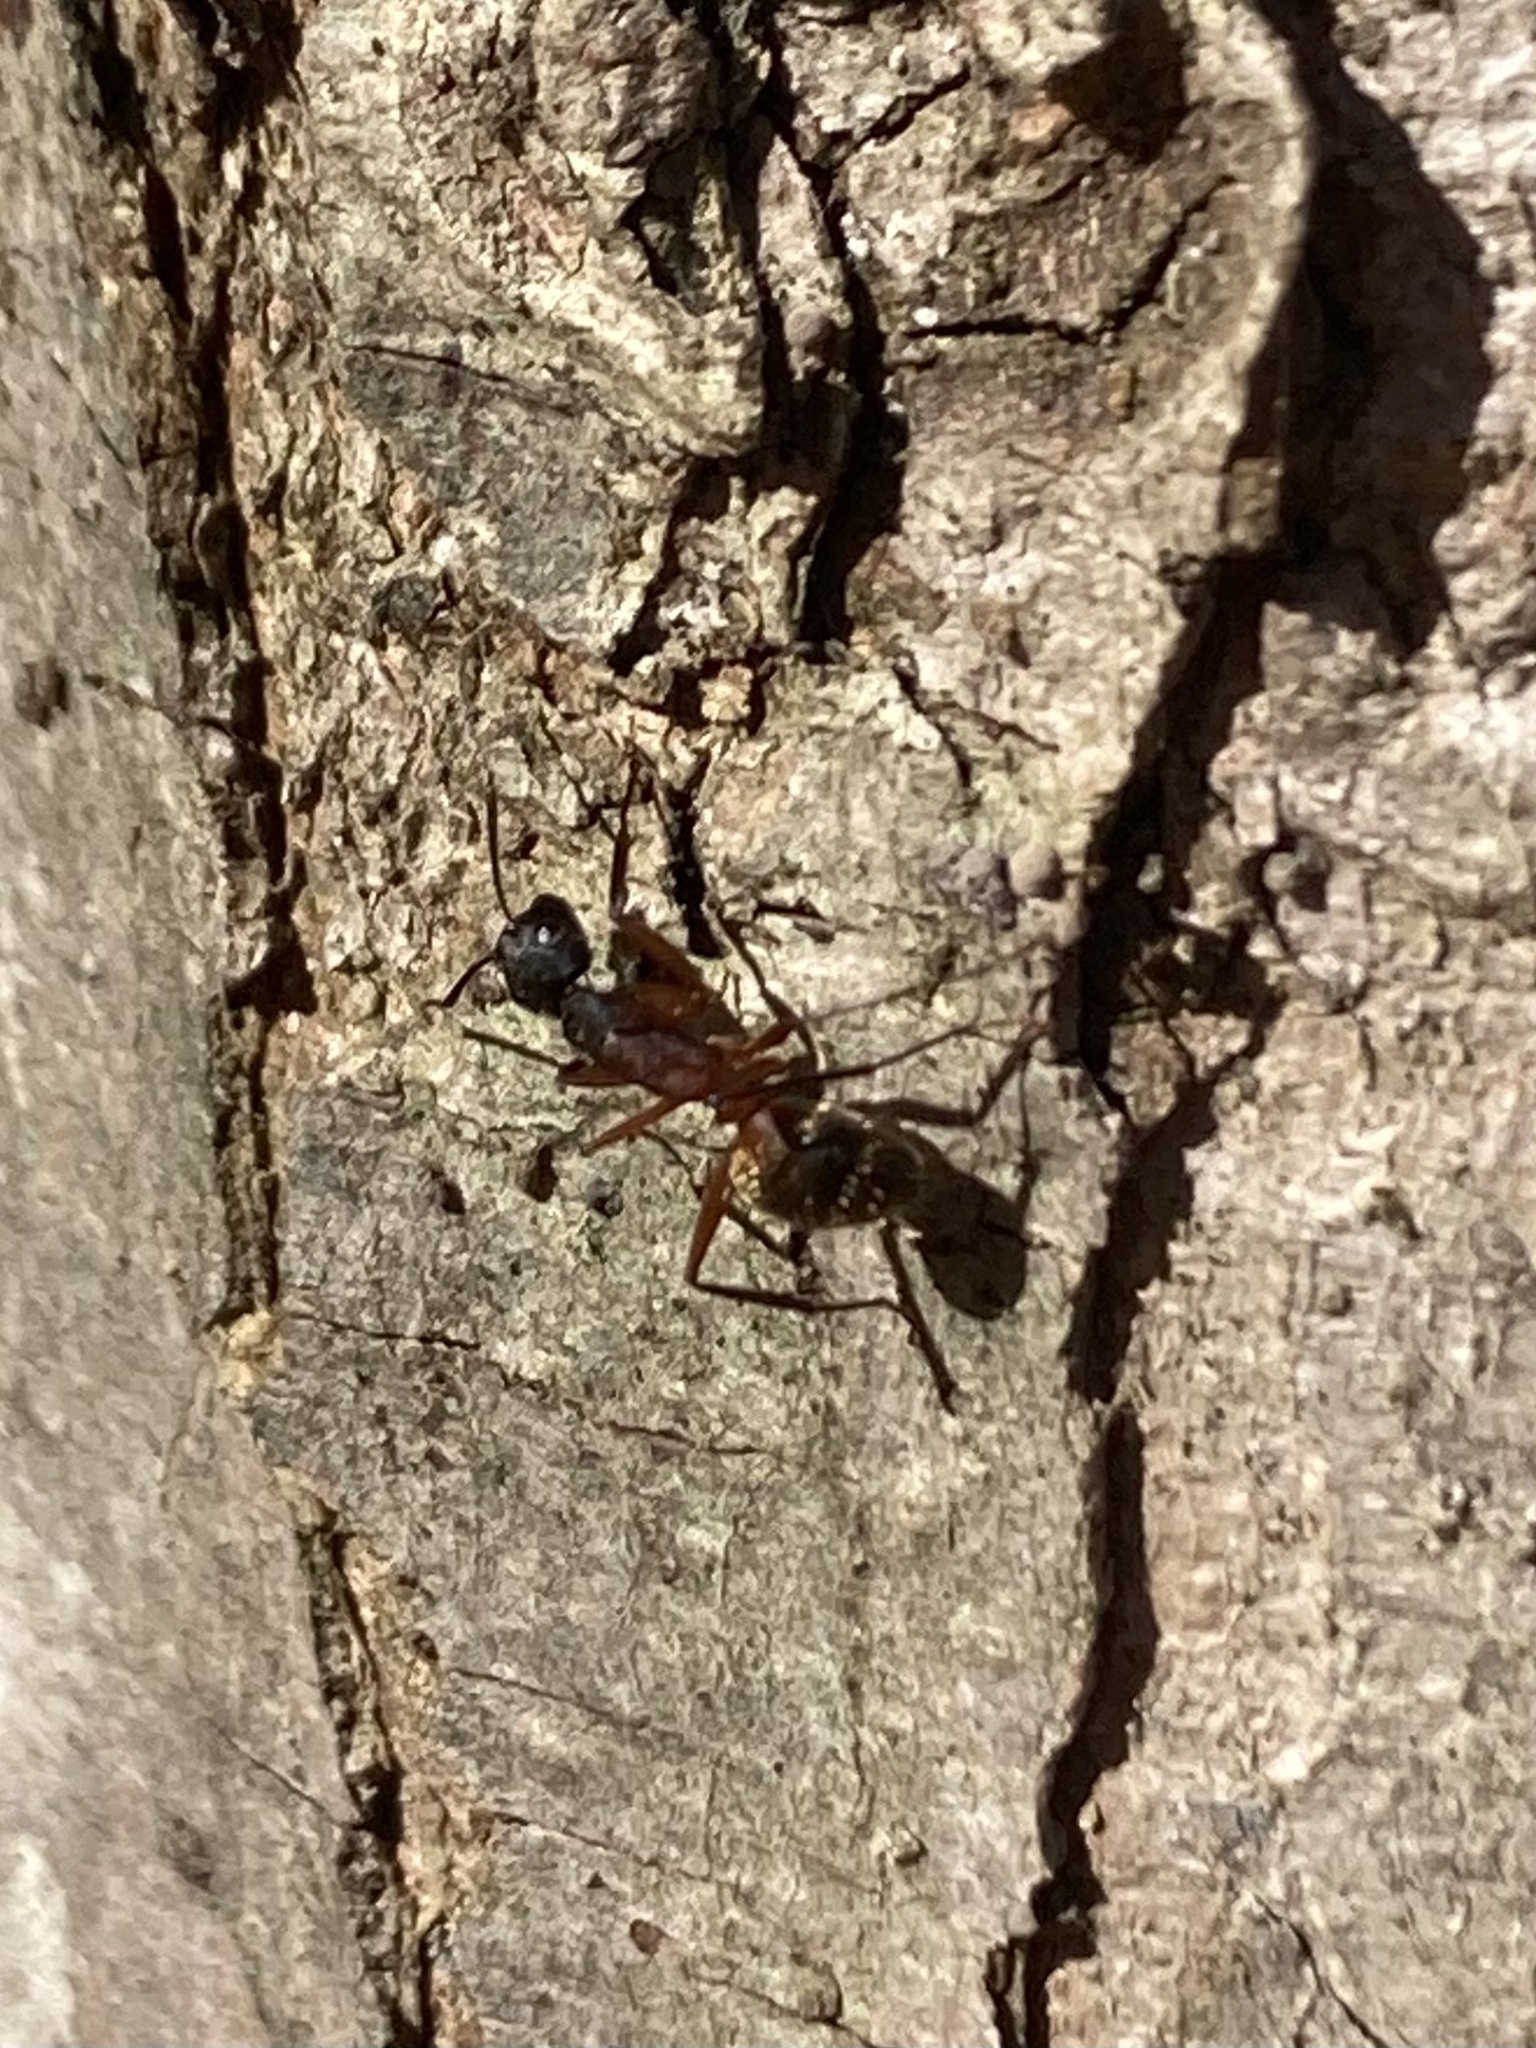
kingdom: Animalia
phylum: Arthropoda
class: Insecta
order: Hymenoptera
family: Formicidae
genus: Camponotus
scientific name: Camponotus chromaiodes
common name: Red carpenter ant
